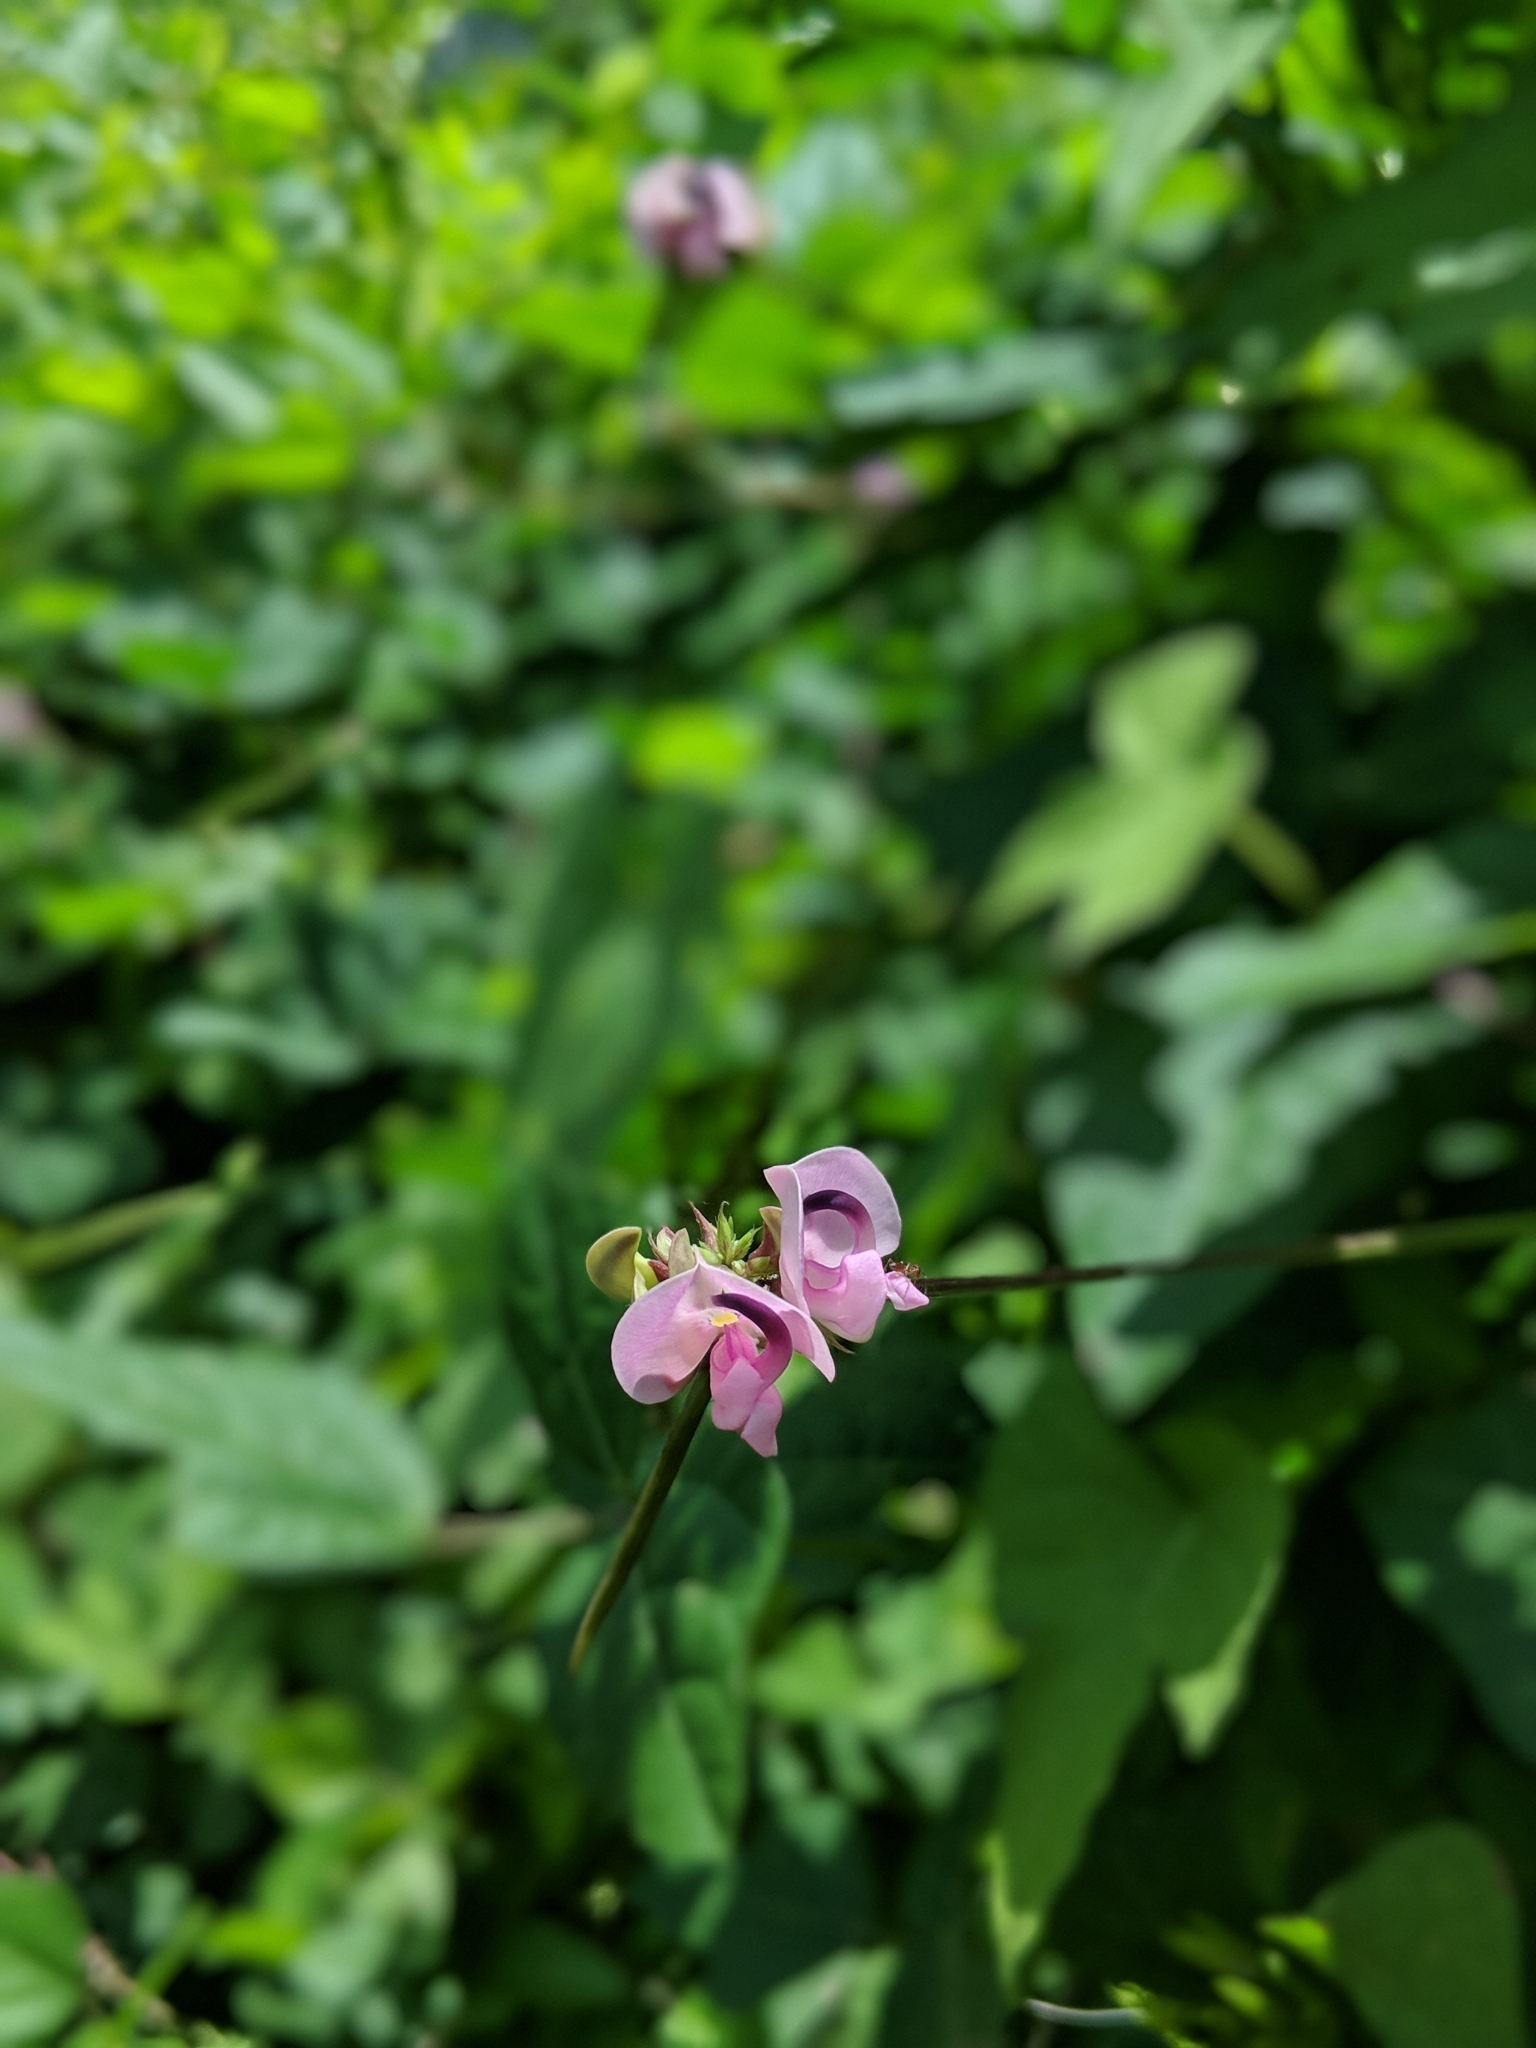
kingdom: Plantae
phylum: Tracheophyta
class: Magnoliopsida
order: Fabales
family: Fabaceae
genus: Strophostyles
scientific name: Strophostyles helvola
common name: Trailing wild bean
